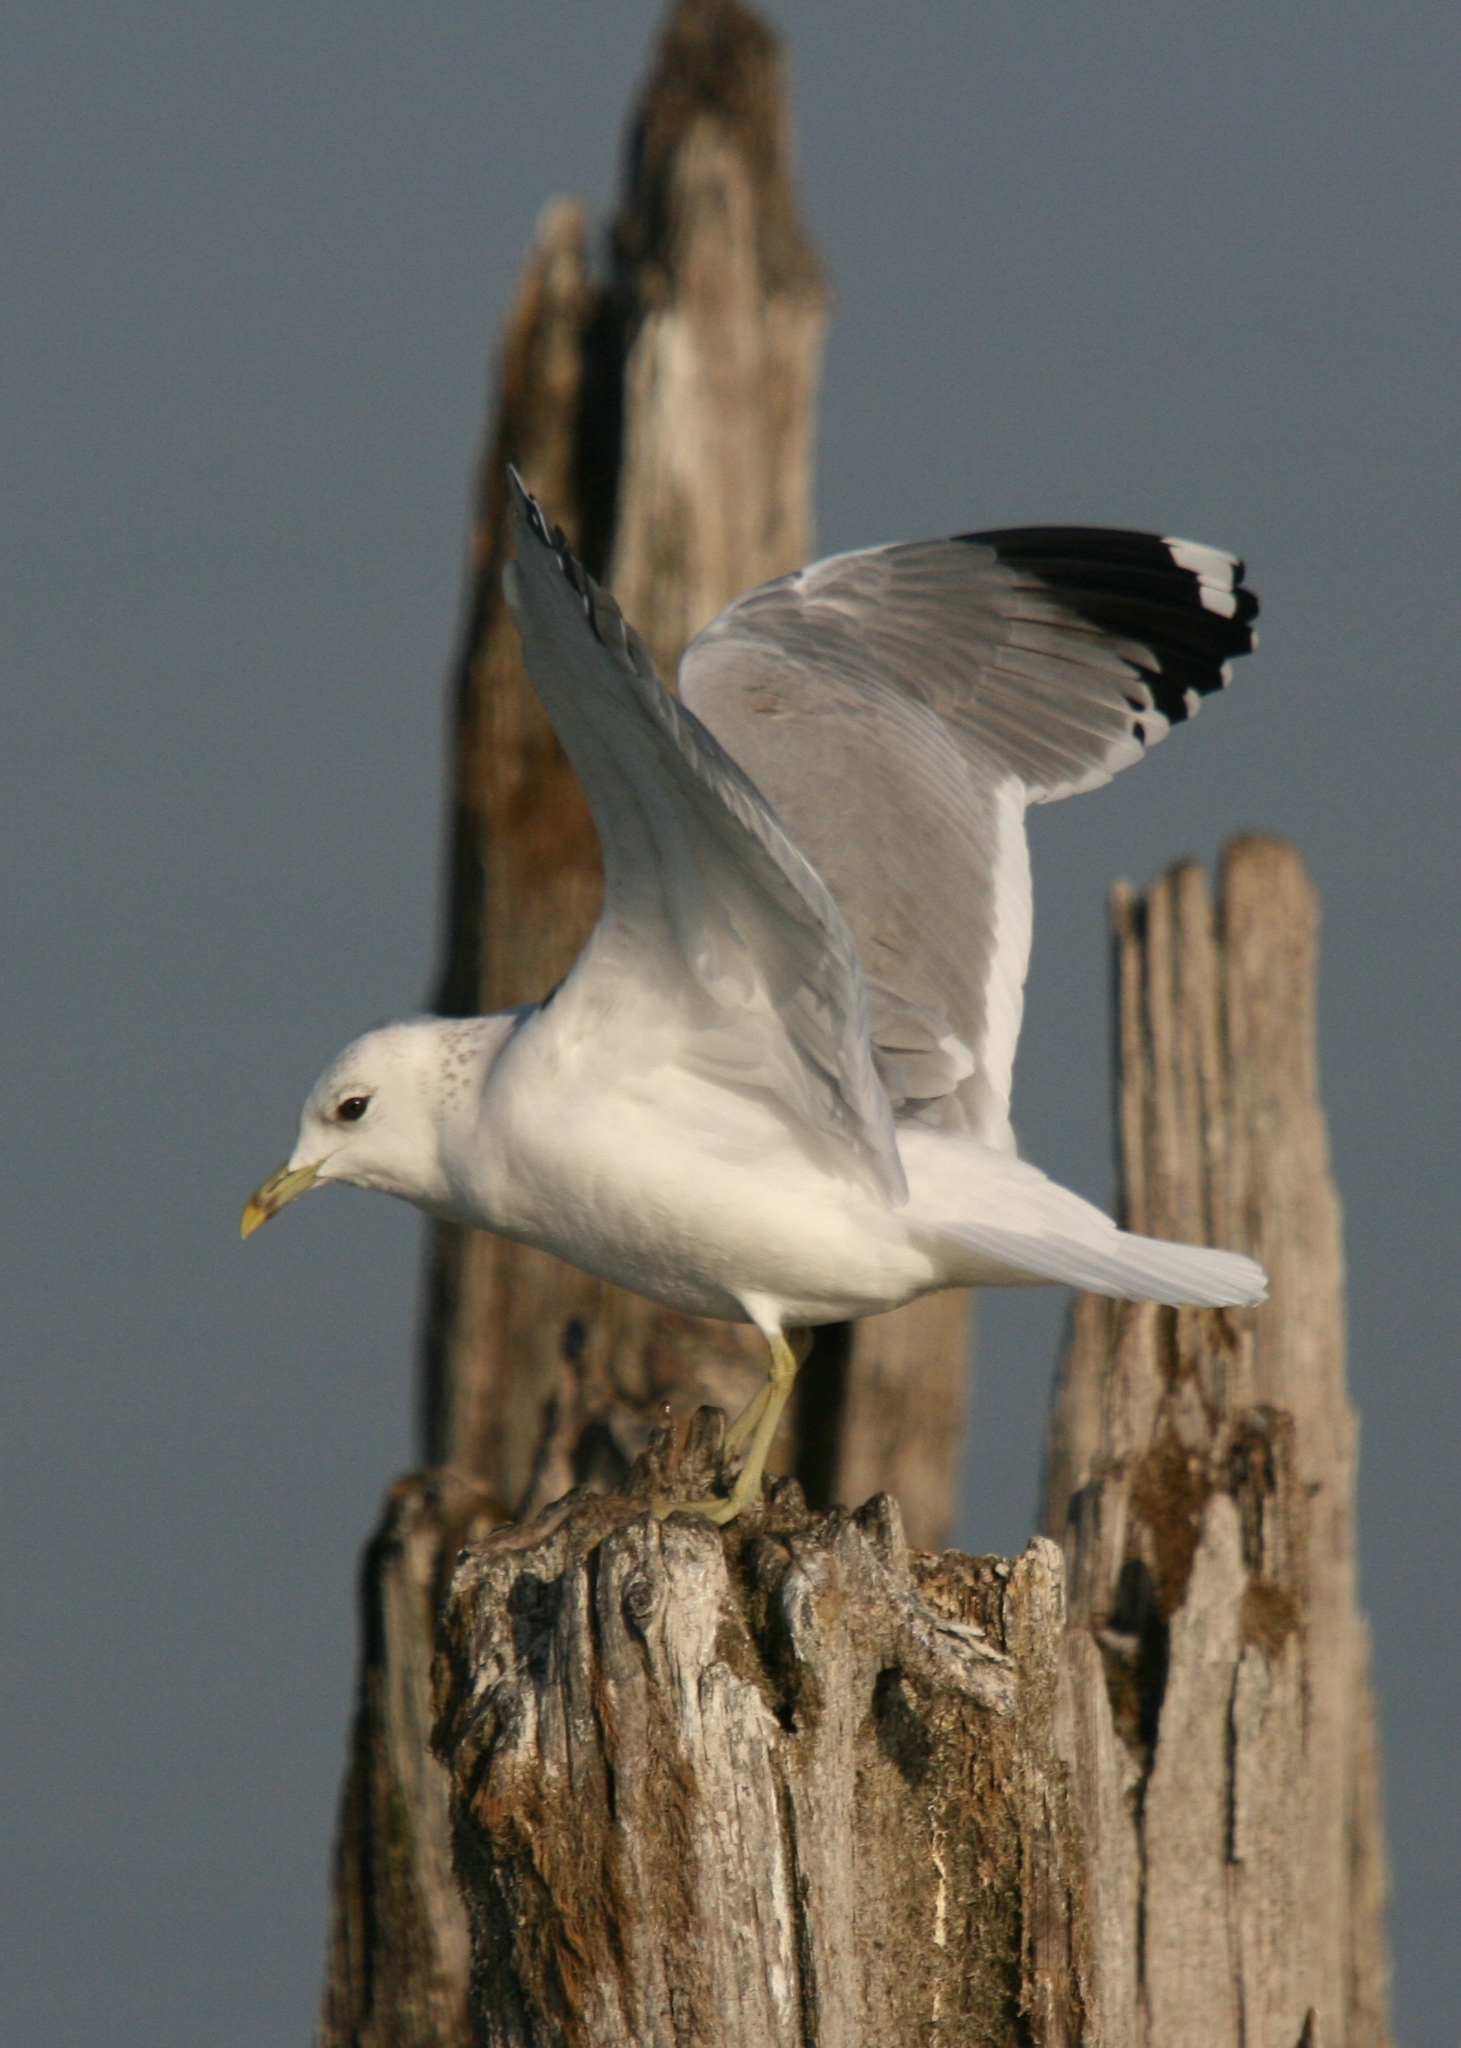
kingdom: Animalia
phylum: Chordata
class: Aves
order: Charadriiformes
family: Laridae
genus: Larus
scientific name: Larus canus
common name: Mew gull
